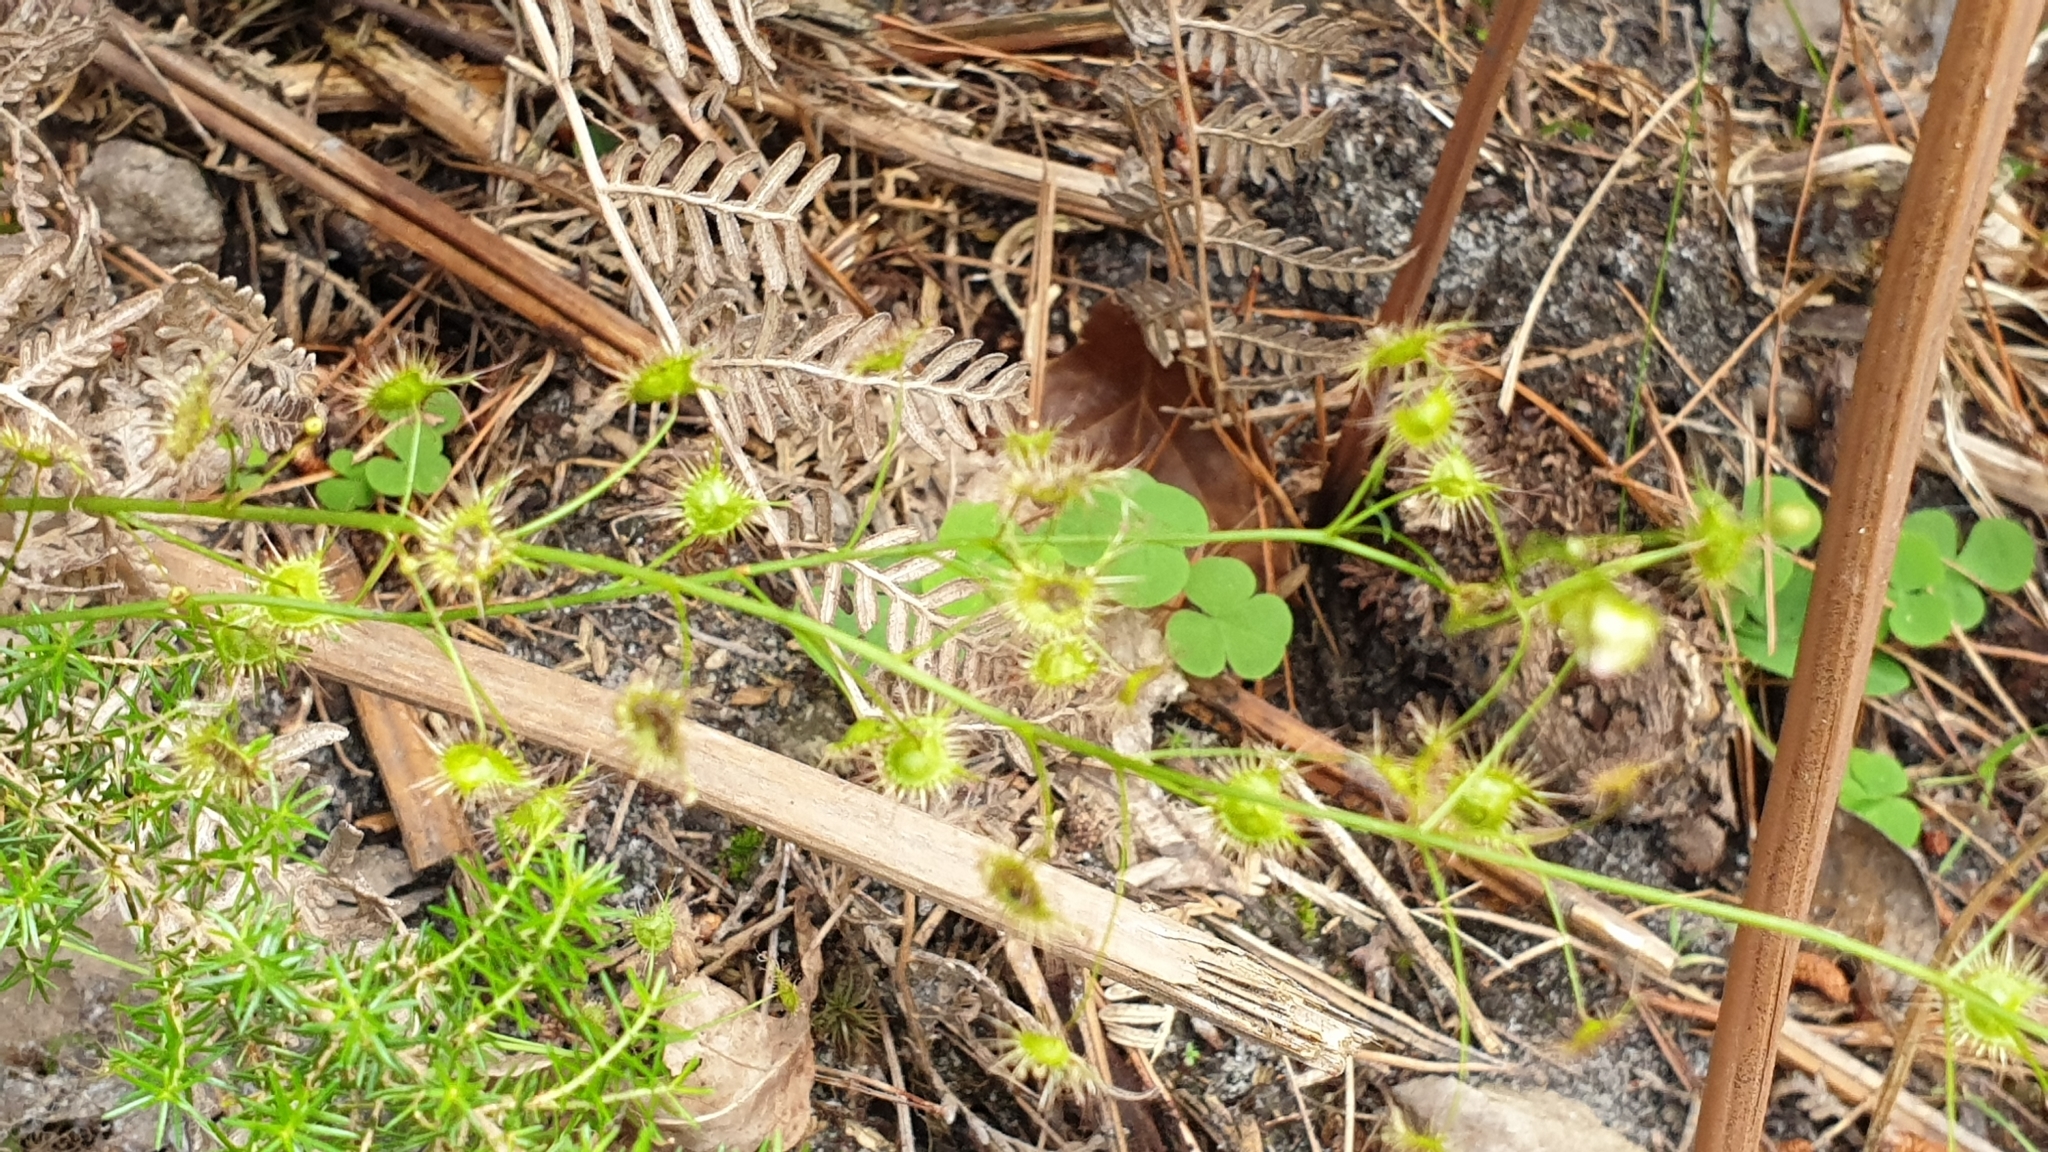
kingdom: Plantae
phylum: Tracheophyta
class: Magnoliopsida
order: Caryophyllales
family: Droseraceae
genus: Drosera
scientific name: Drosera peltata
